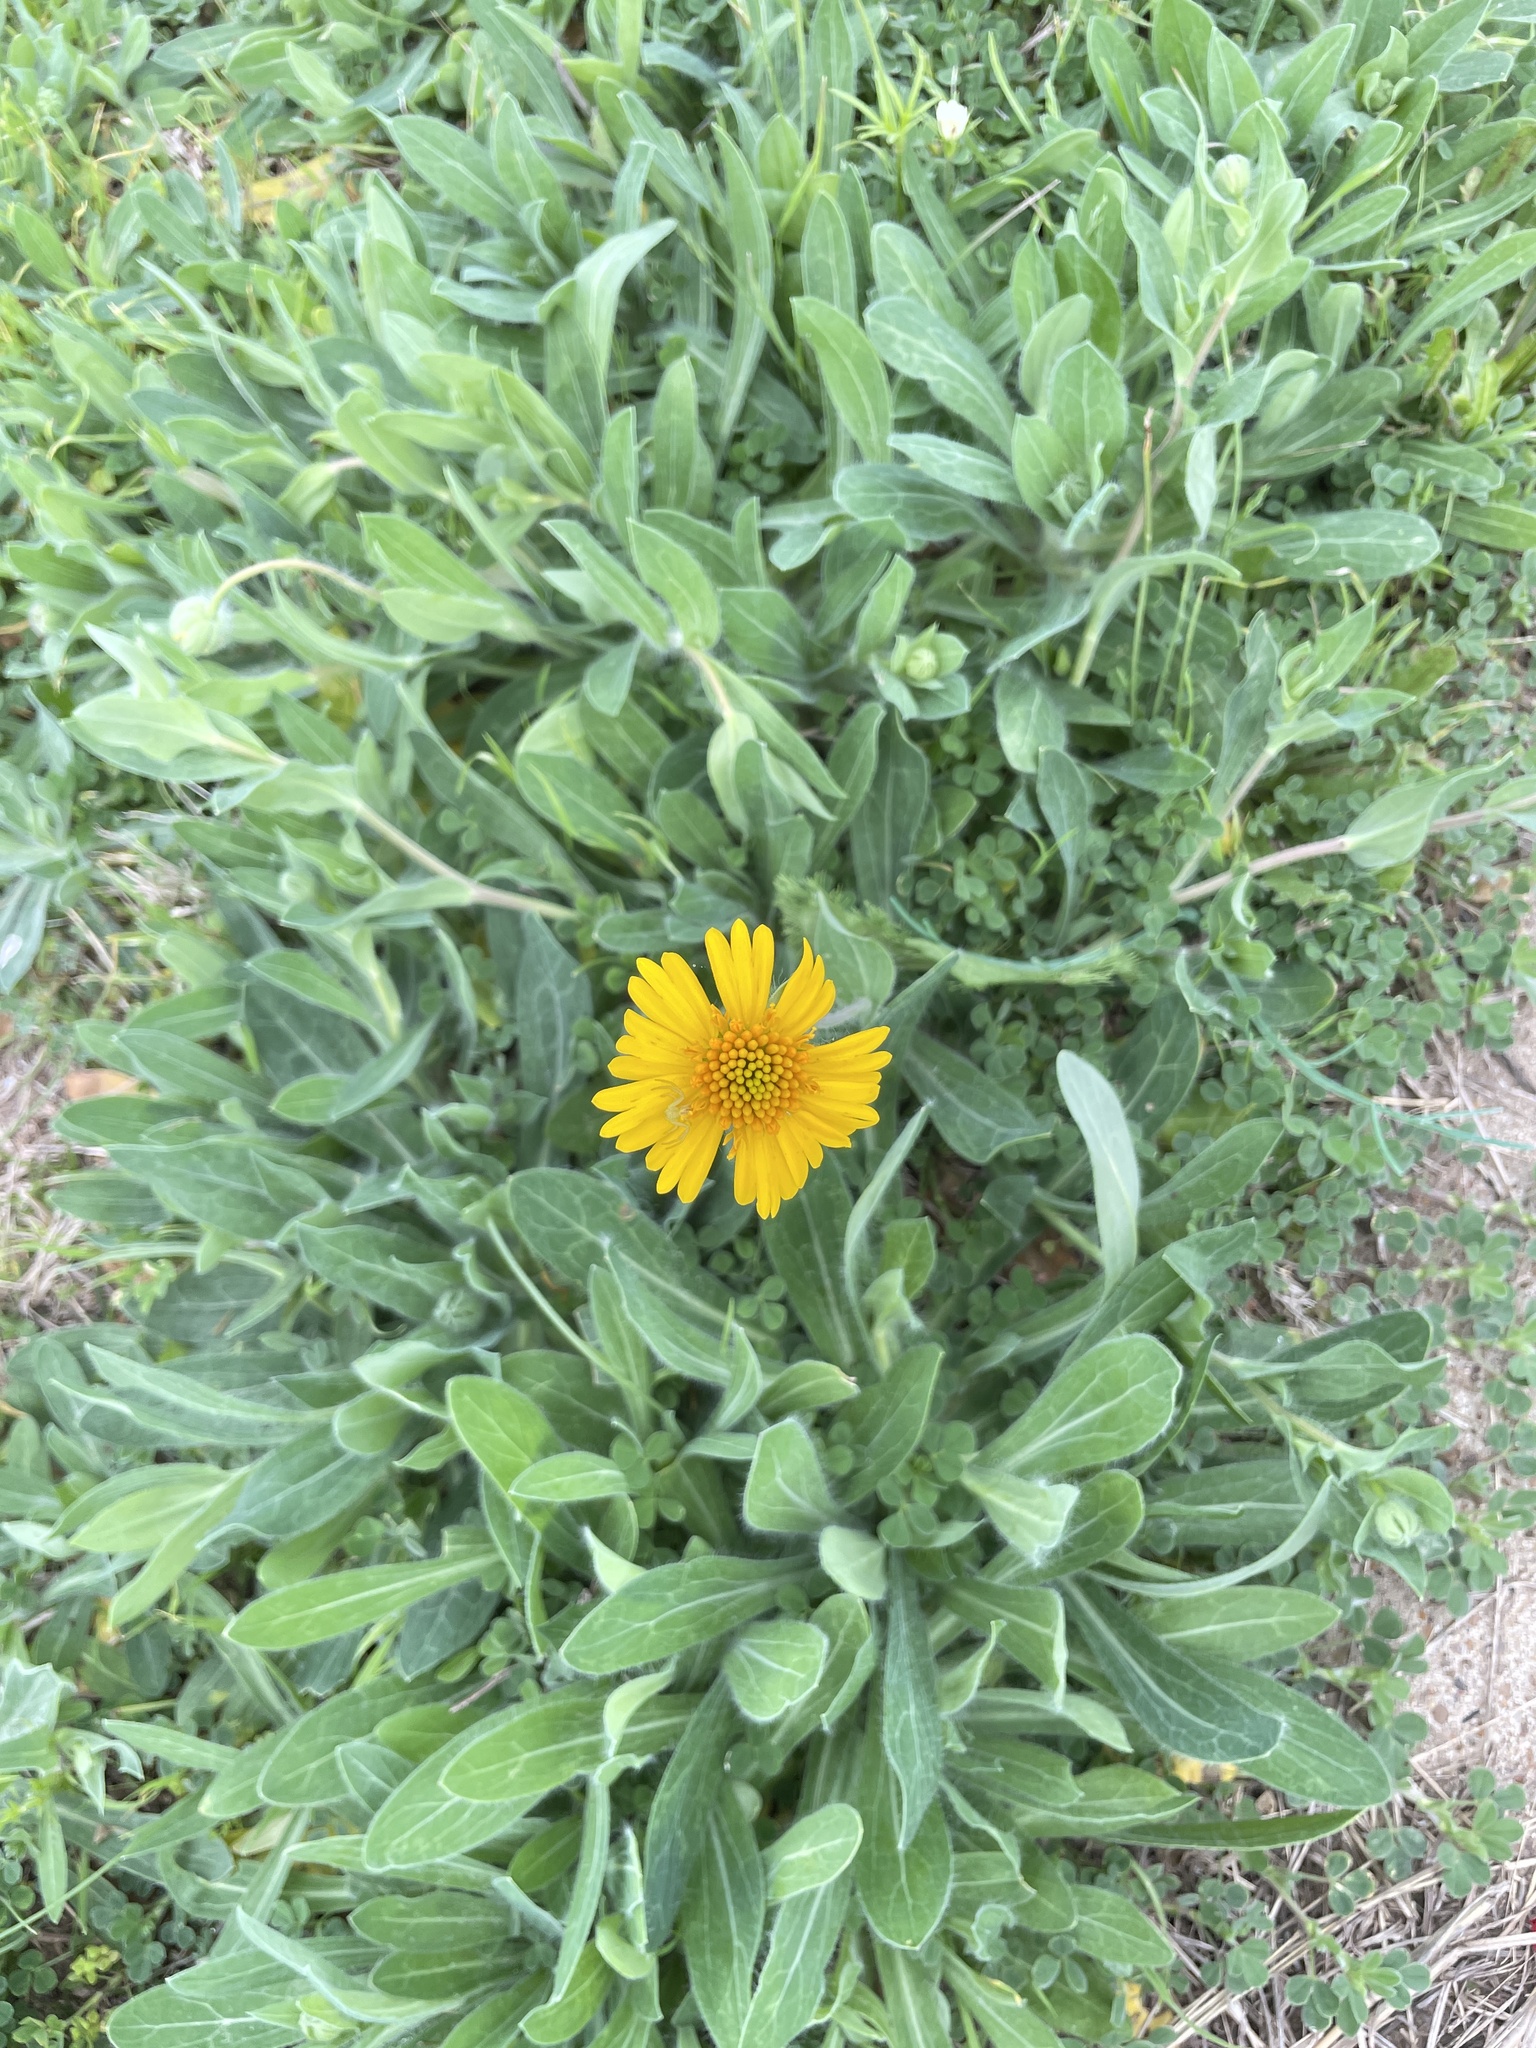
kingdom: Plantae
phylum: Tracheophyta
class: Magnoliopsida
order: Asterales
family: Asteraceae
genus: Amblyolepis
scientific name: Amblyolepis setigera
